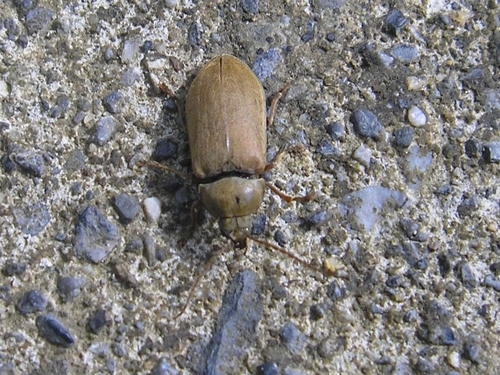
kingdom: Animalia
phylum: Arthropoda
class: Insecta
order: Coleoptera
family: Dascillidae
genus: Dascillus
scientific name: Dascillus cervinus
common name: Orchid beetle
